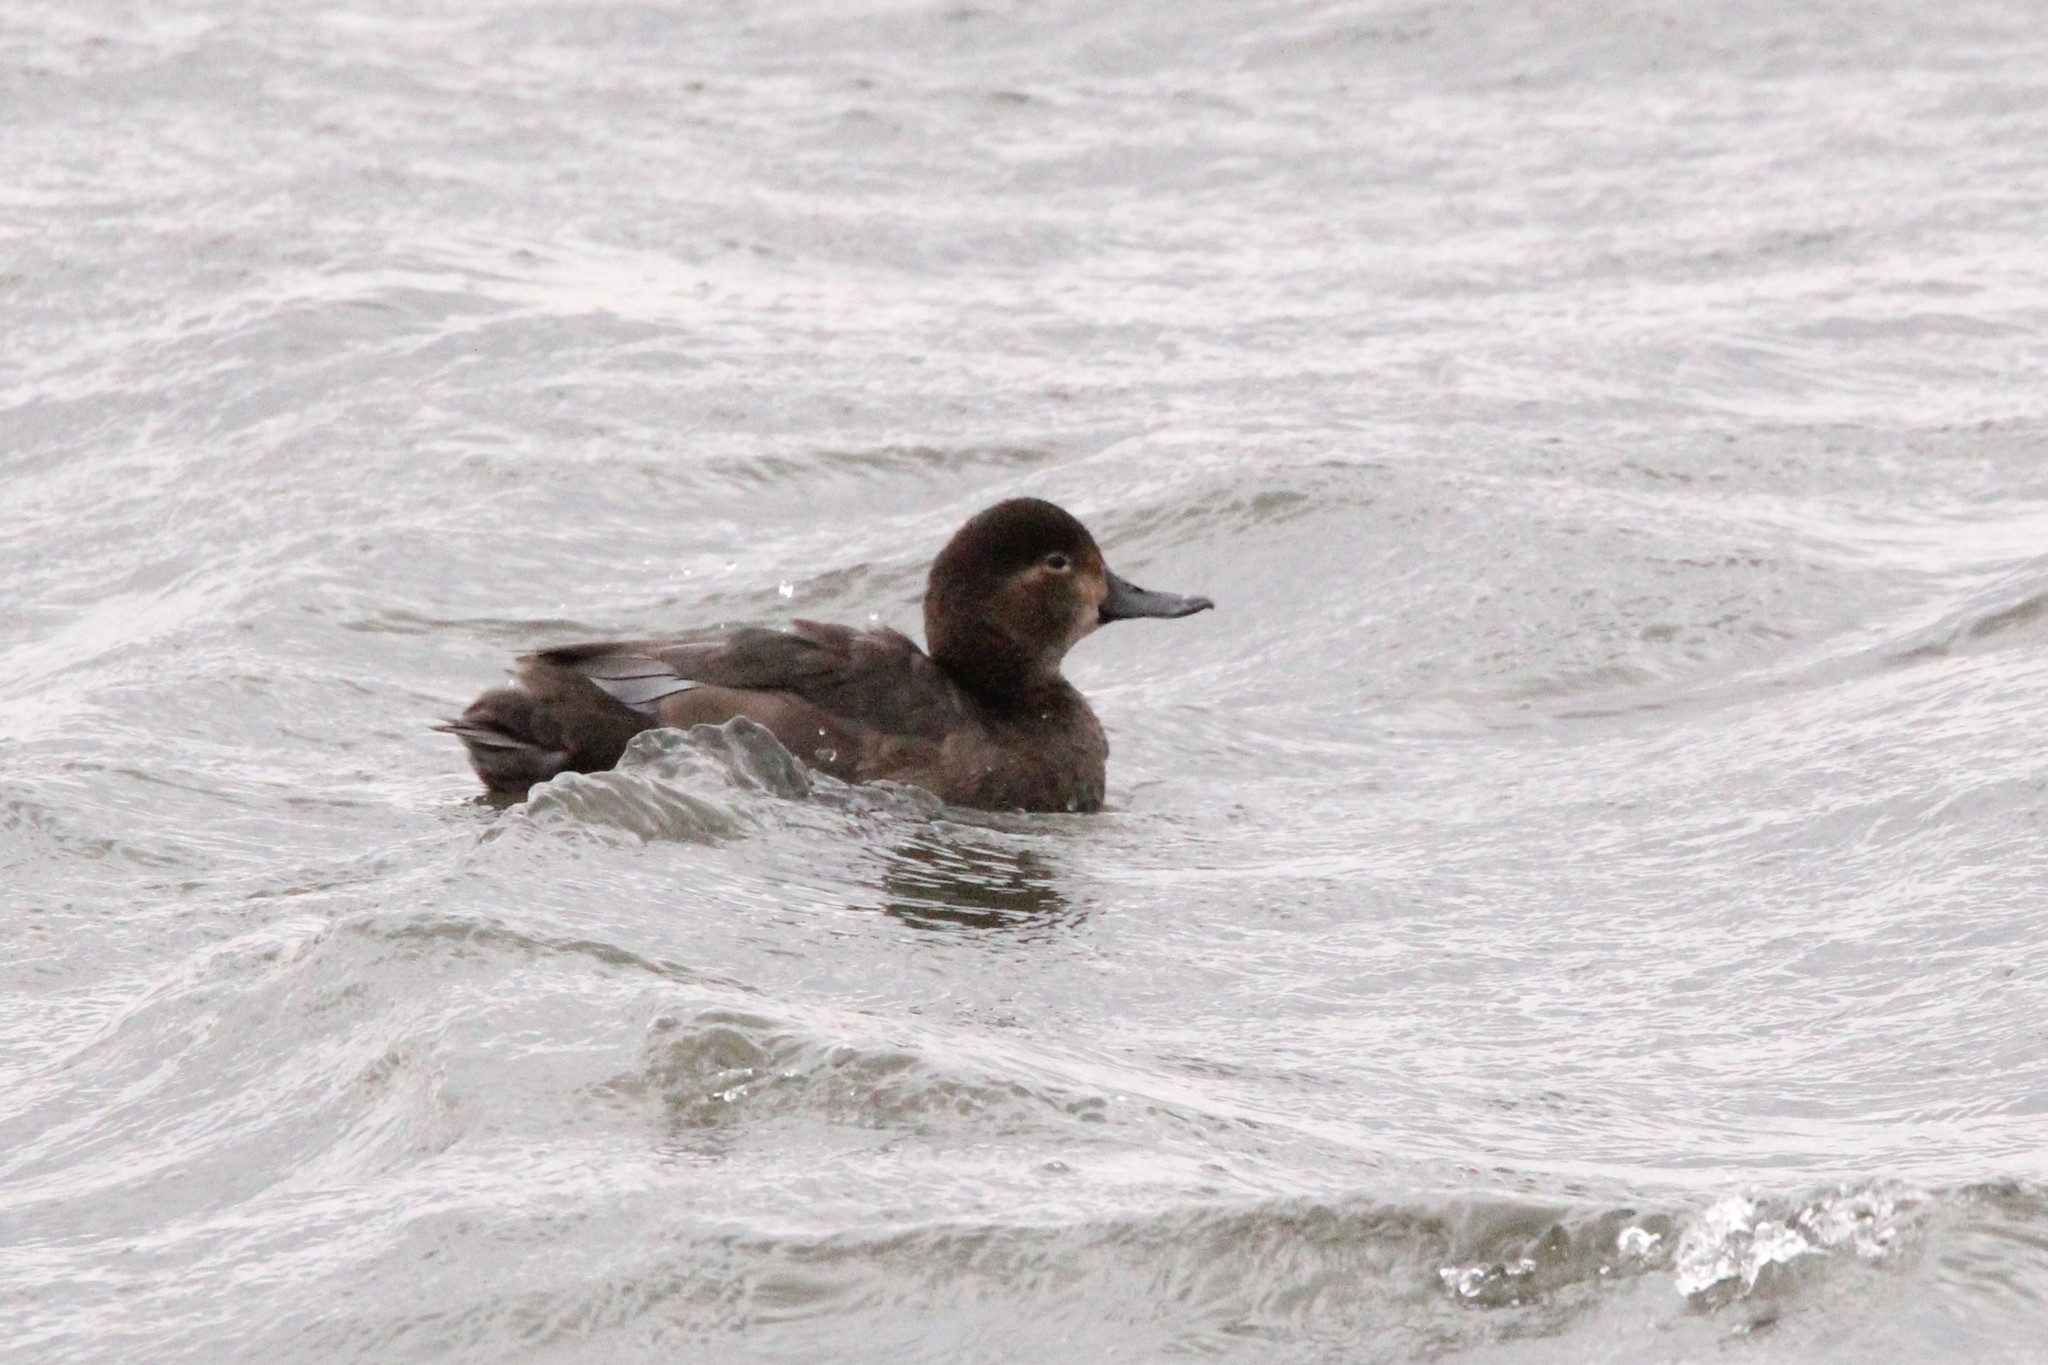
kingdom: Animalia
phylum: Chordata
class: Aves
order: Anseriformes
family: Anatidae
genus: Aythya
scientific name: Aythya americana
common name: Redhead
